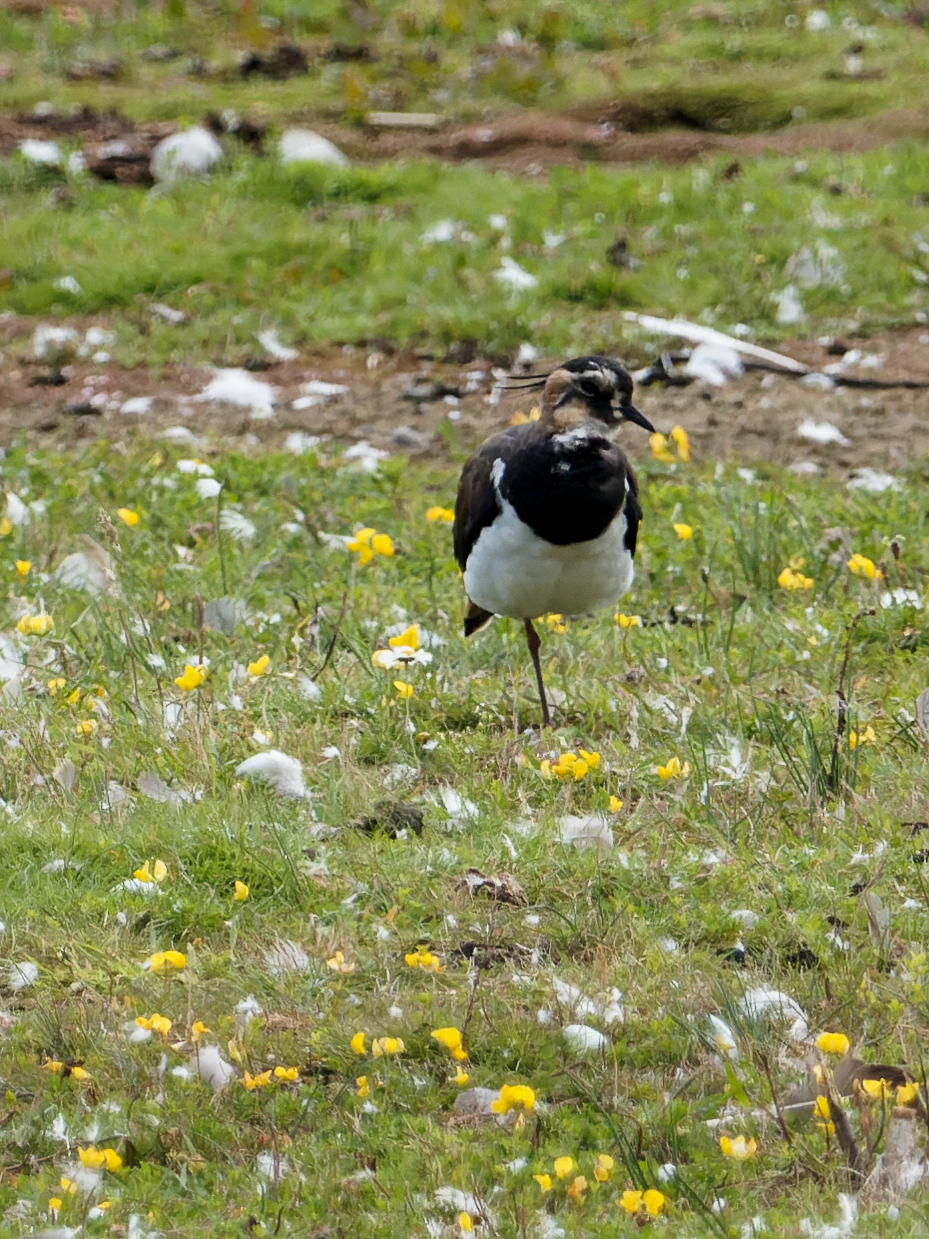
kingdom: Animalia
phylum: Chordata
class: Aves
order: Charadriiformes
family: Charadriidae
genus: Vanellus
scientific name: Vanellus vanellus
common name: Northern lapwing
